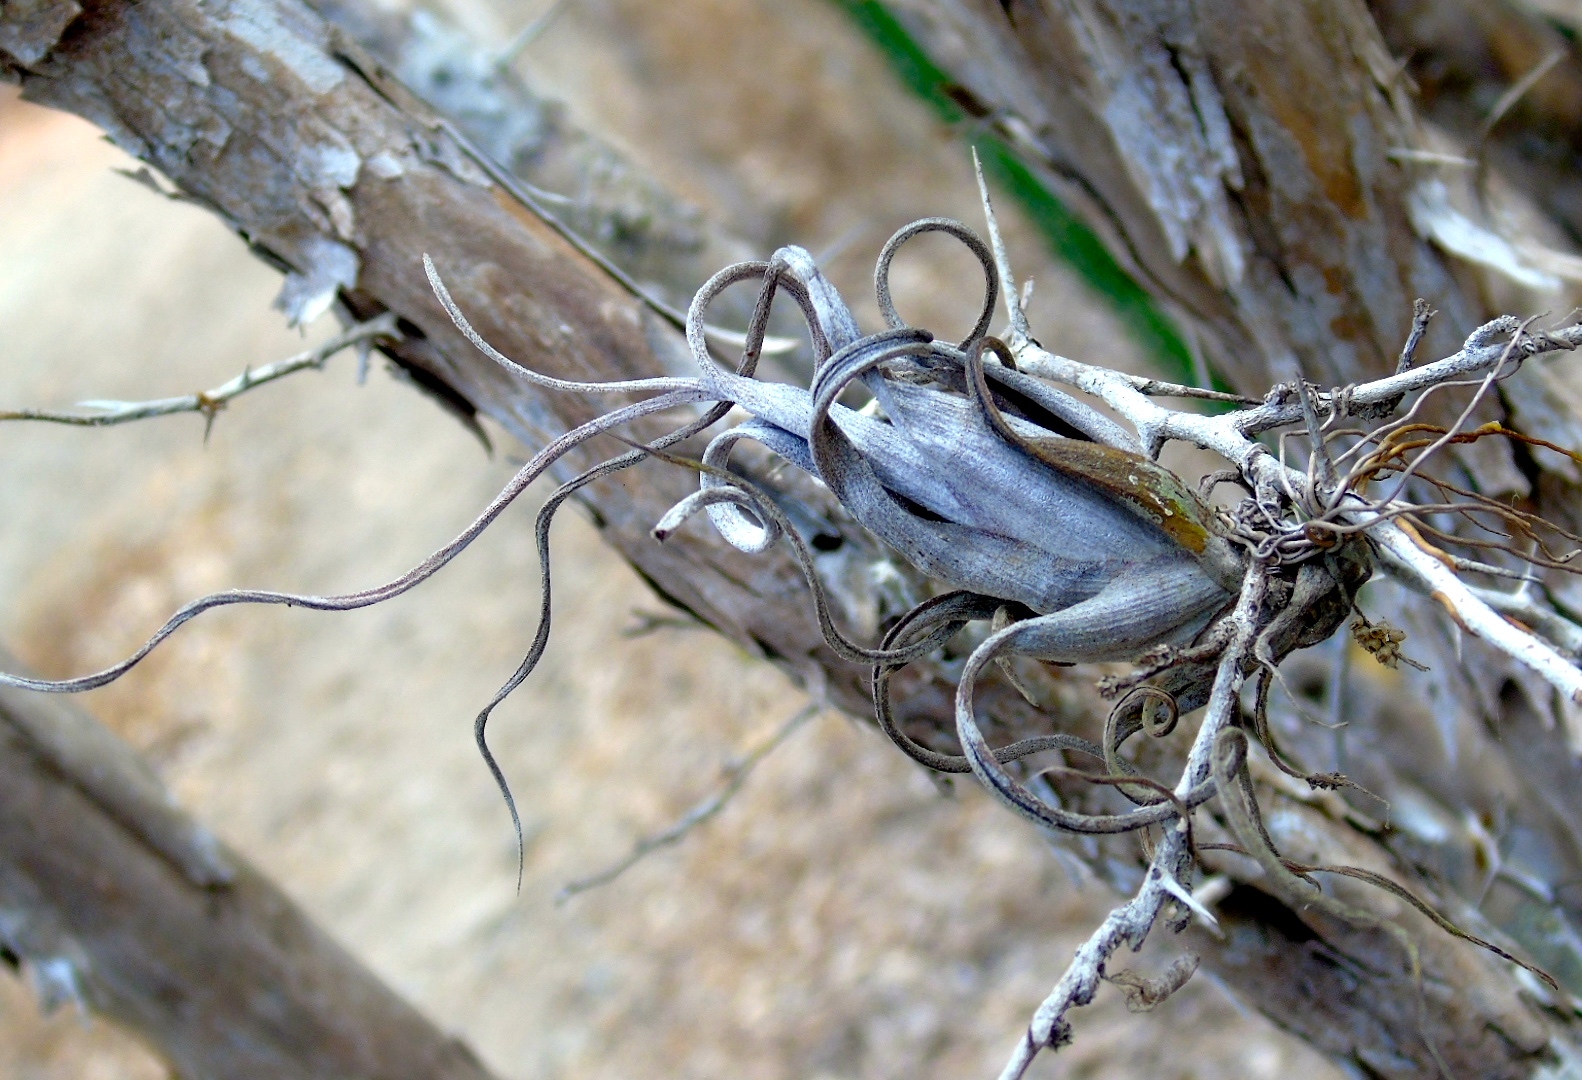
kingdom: Plantae
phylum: Tracheophyta
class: Liliopsida
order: Poales
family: Bromeliaceae
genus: Tillandsia
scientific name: Tillandsia intermedia
